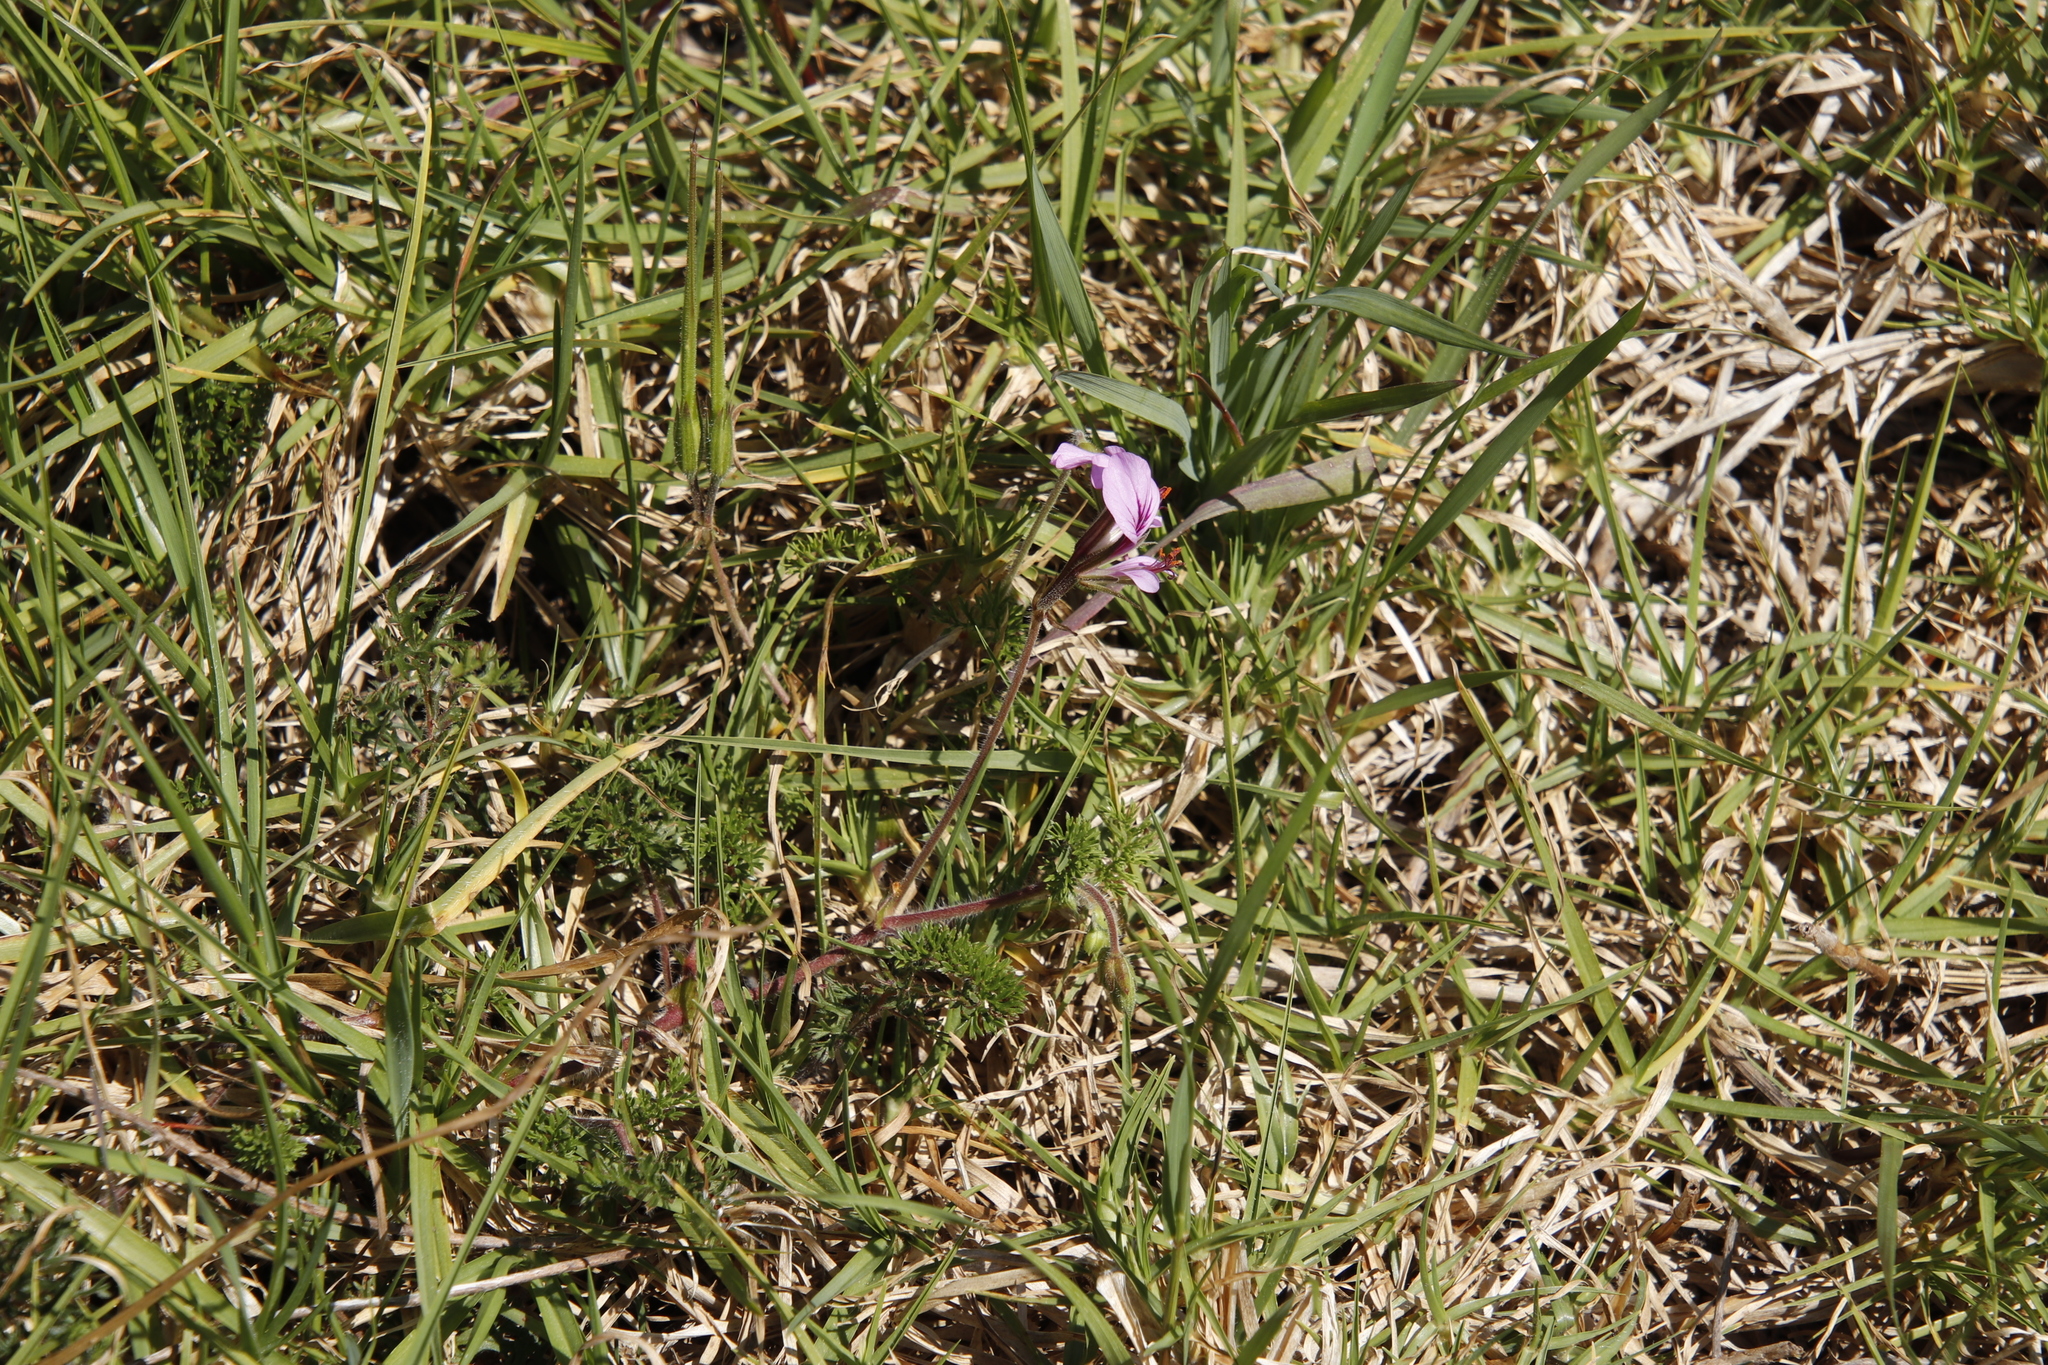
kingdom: Plantae
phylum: Tracheophyta
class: Magnoliopsida
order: Geraniales
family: Geraniaceae
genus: Pelargonium
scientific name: Pelargonium myrrhifolium
